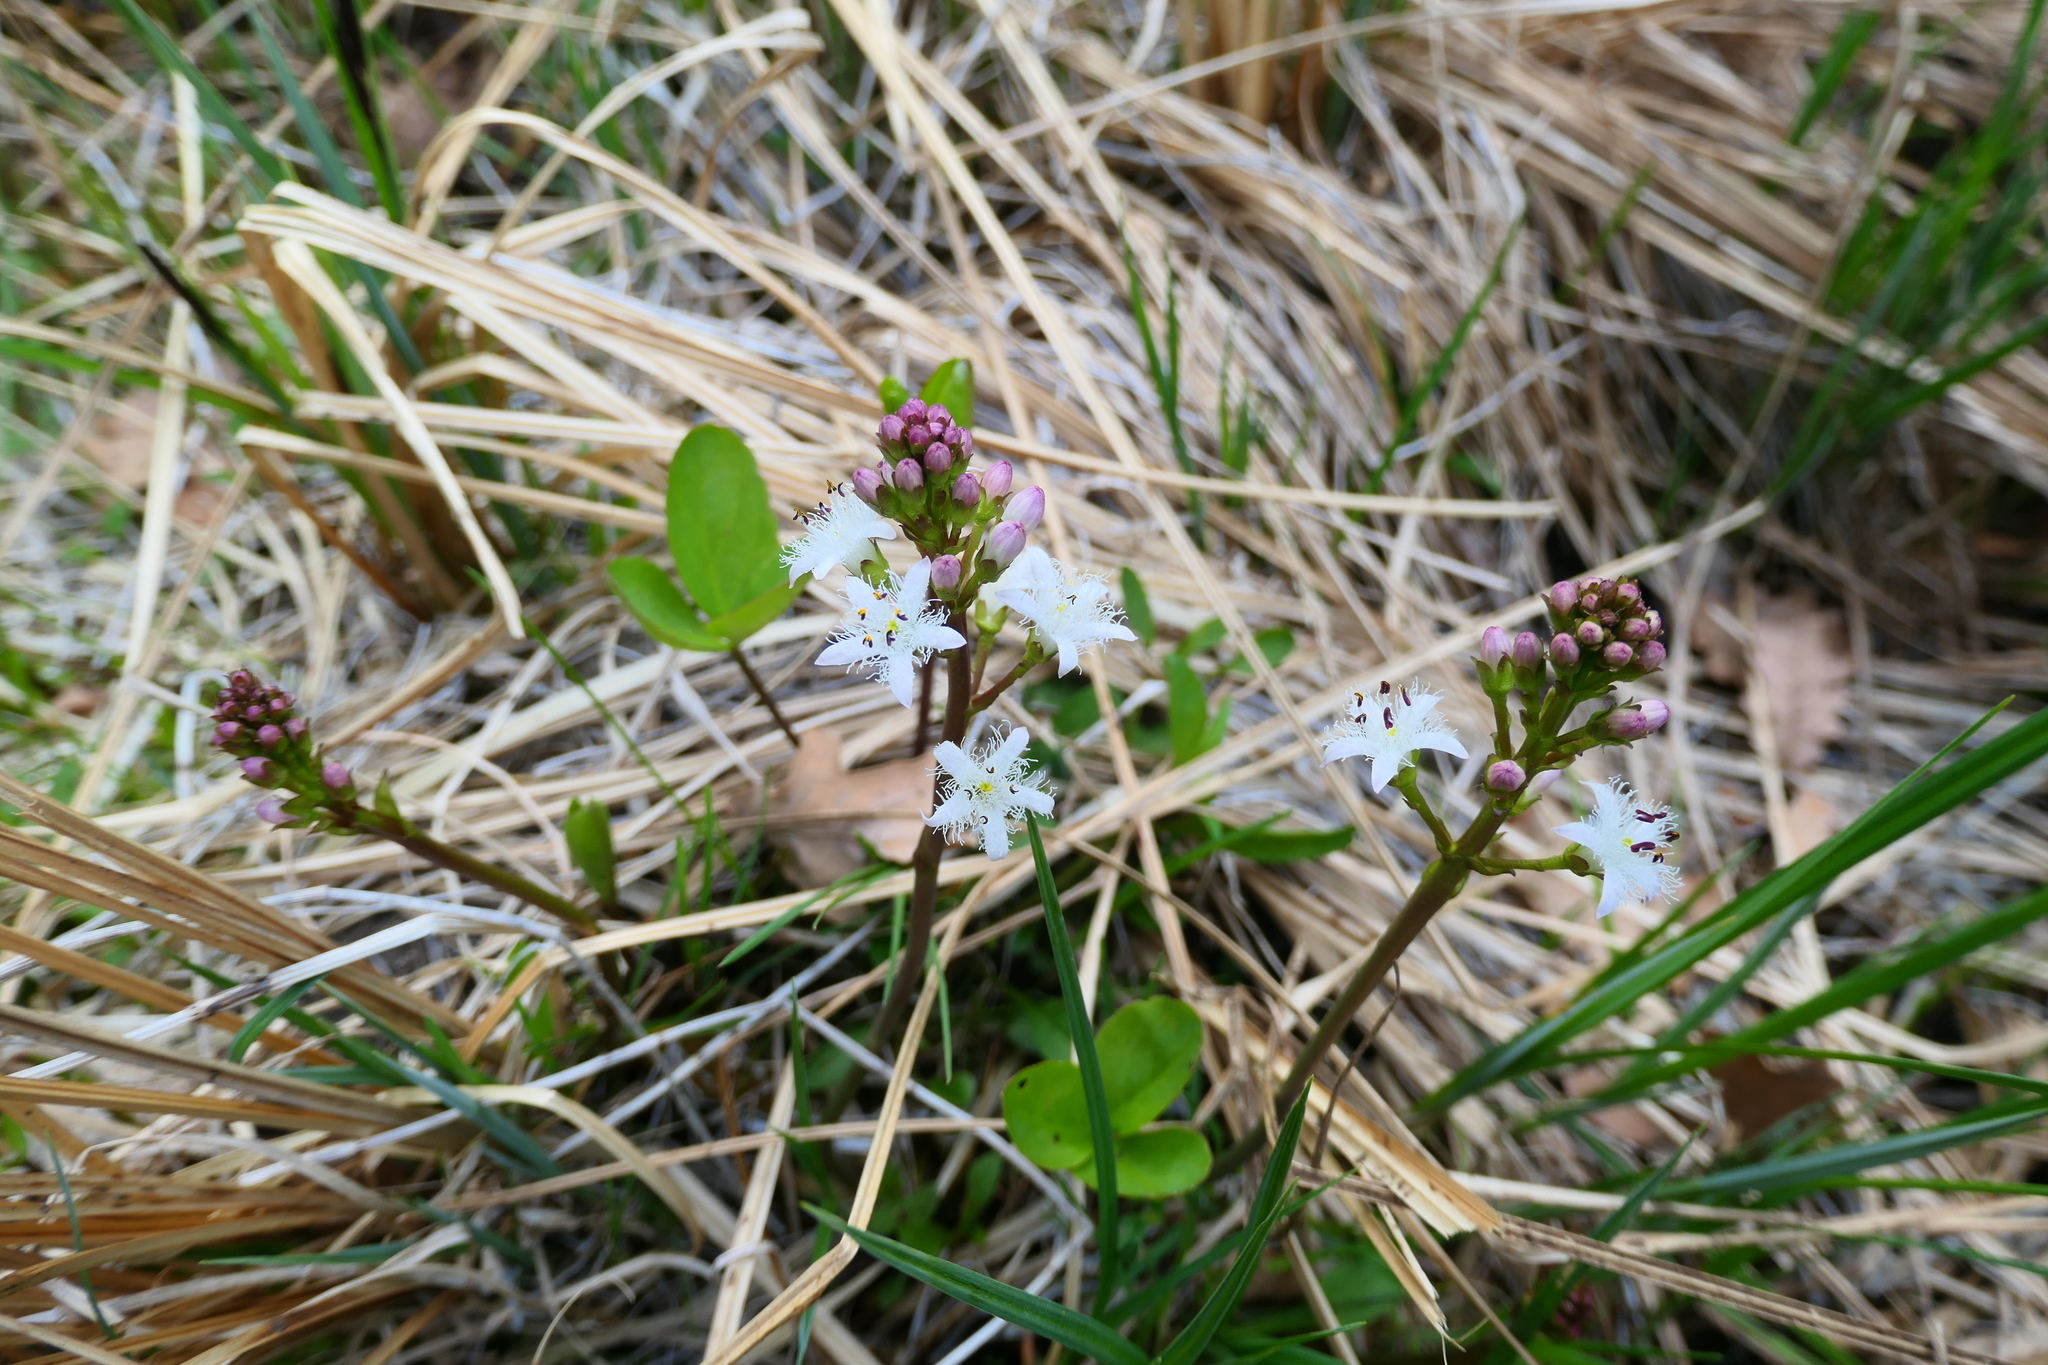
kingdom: Plantae
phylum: Tracheophyta
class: Magnoliopsida
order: Asterales
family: Menyanthaceae
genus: Menyanthes
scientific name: Menyanthes trifoliata
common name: Bogbean
